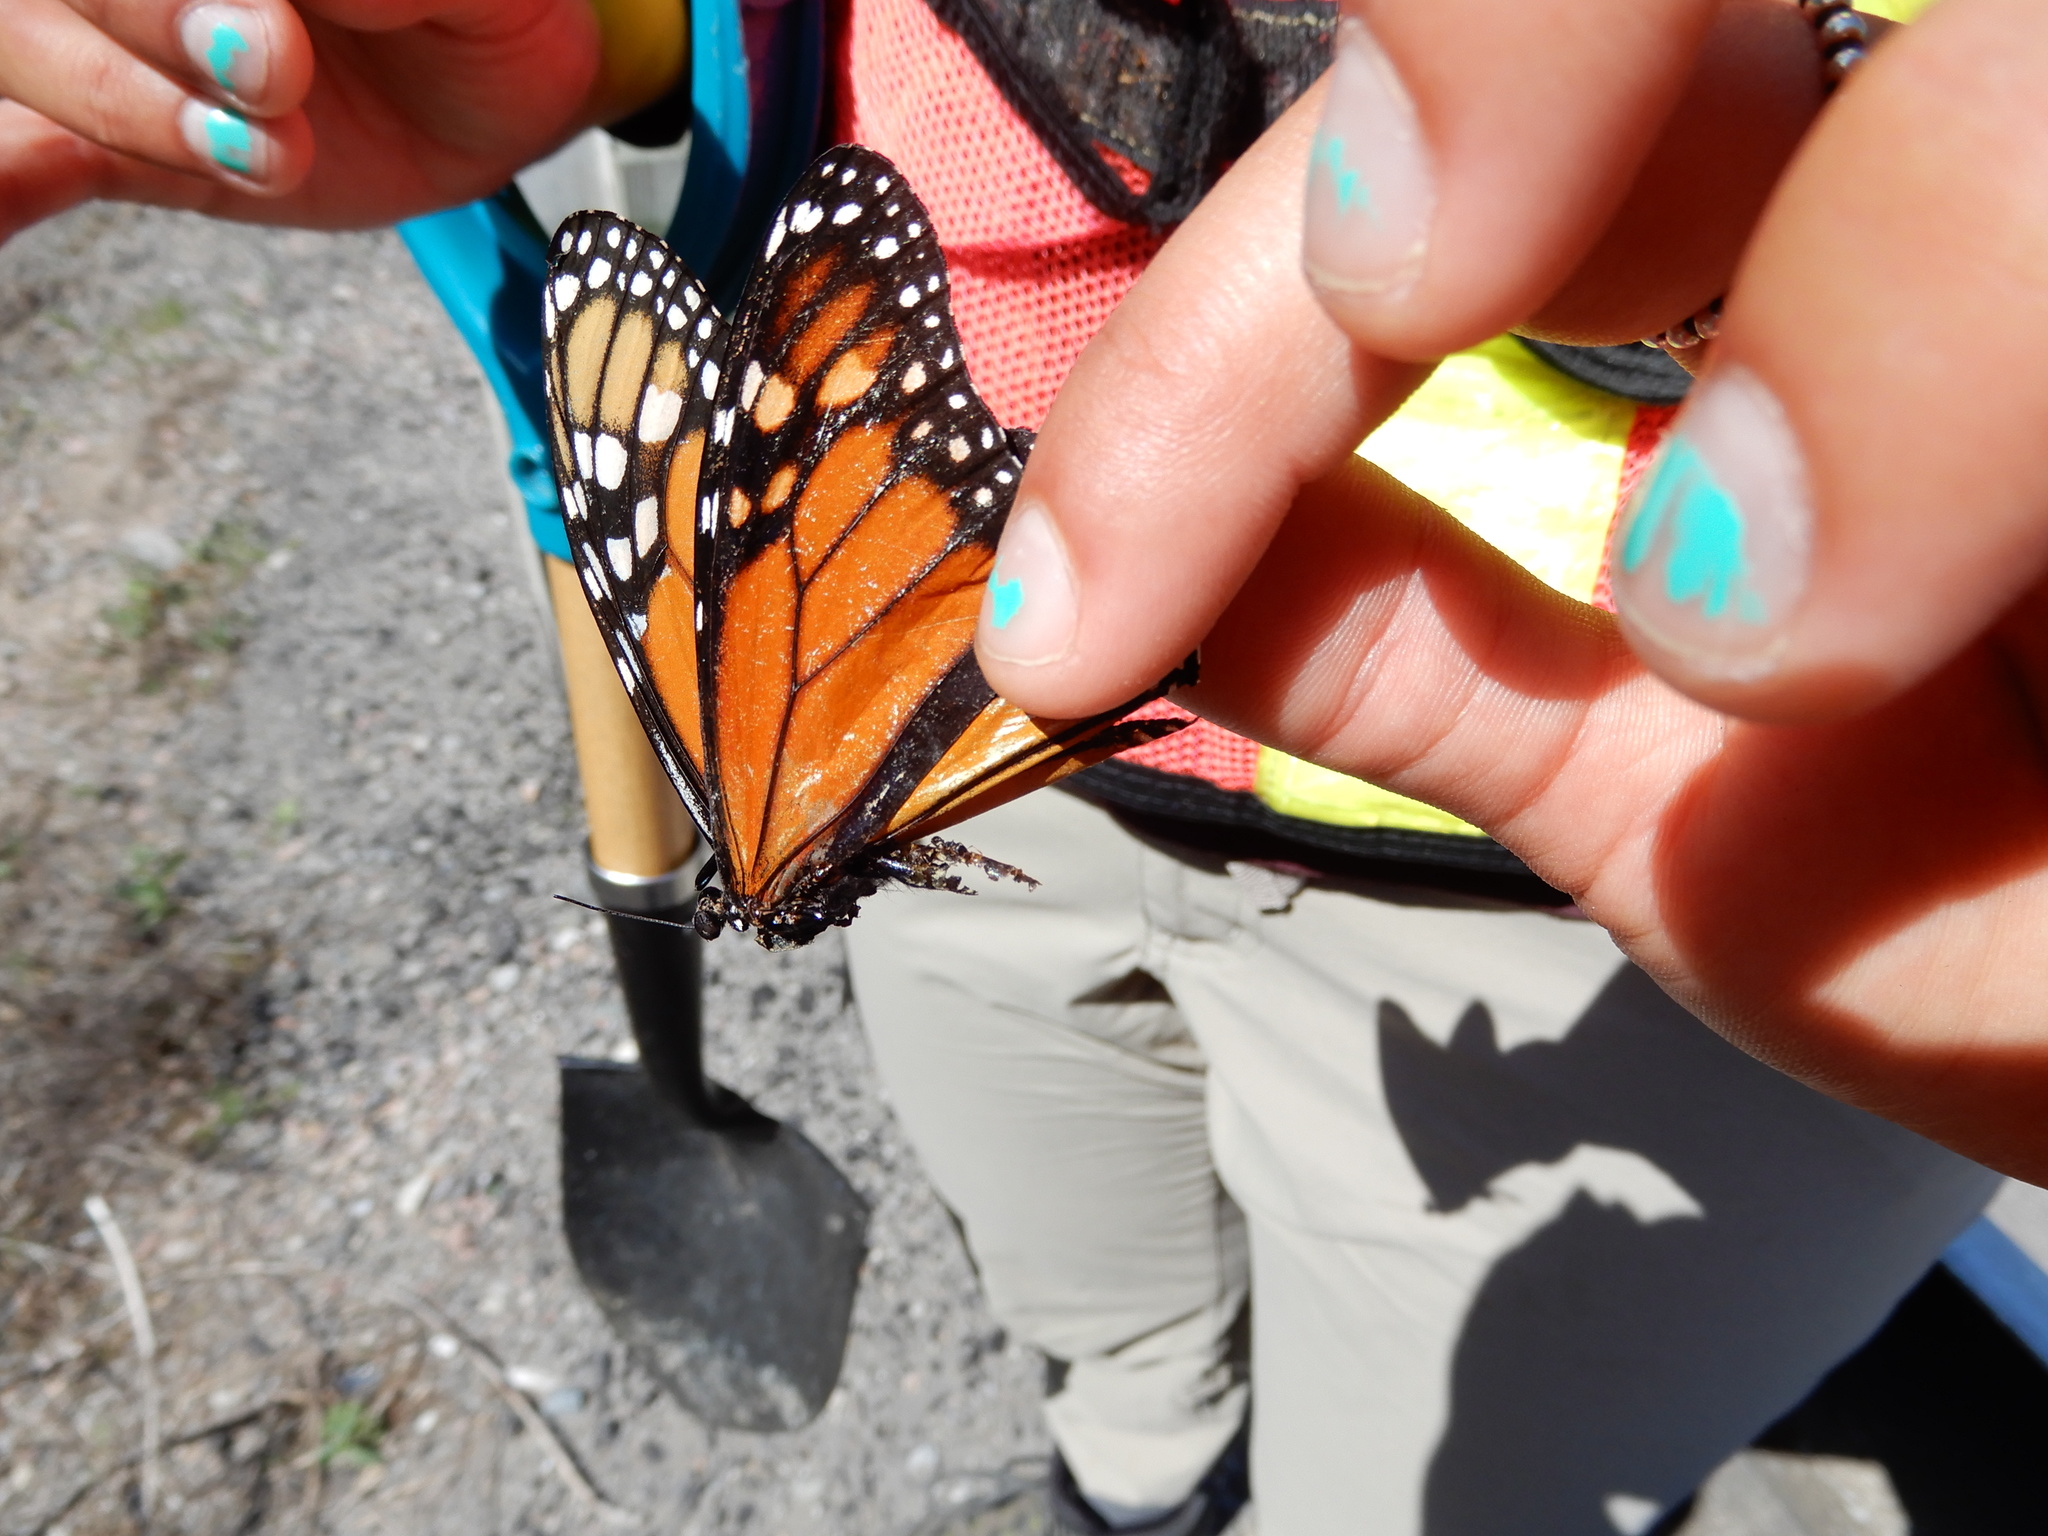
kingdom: Animalia
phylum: Arthropoda
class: Insecta
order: Lepidoptera
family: Nymphalidae
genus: Danaus
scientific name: Danaus plexippus
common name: Monarch
